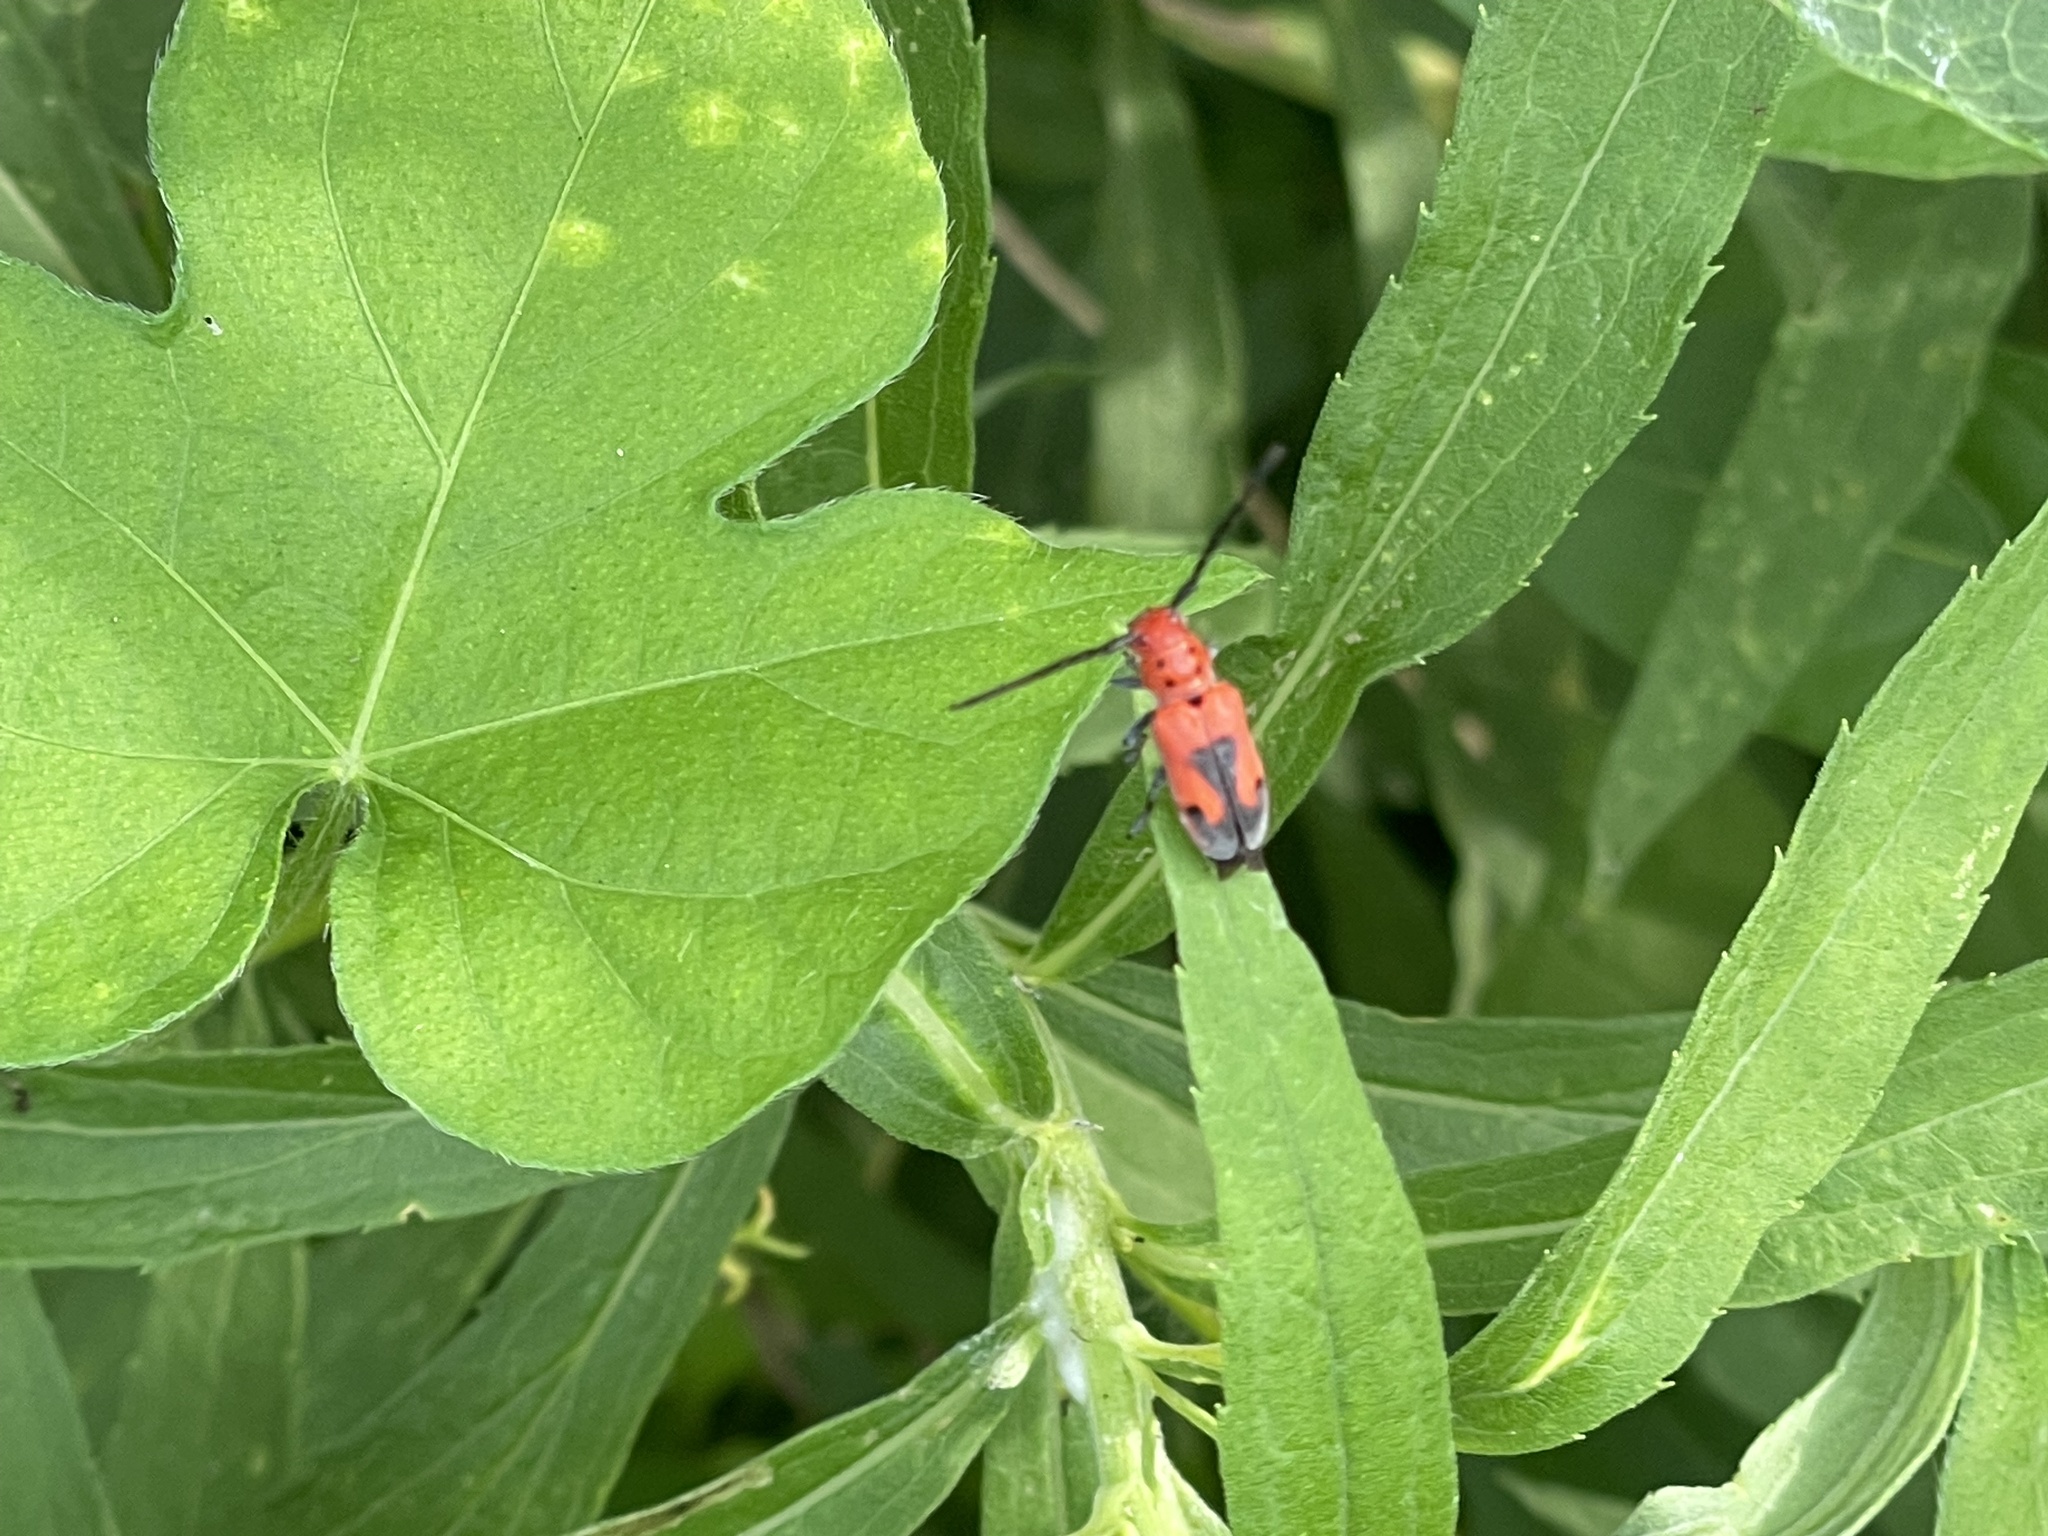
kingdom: Animalia
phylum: Arthropoda
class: Insecta
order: Coleoptera
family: Cerambycidae
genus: Tetraopes
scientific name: Tetraopes melanurus
